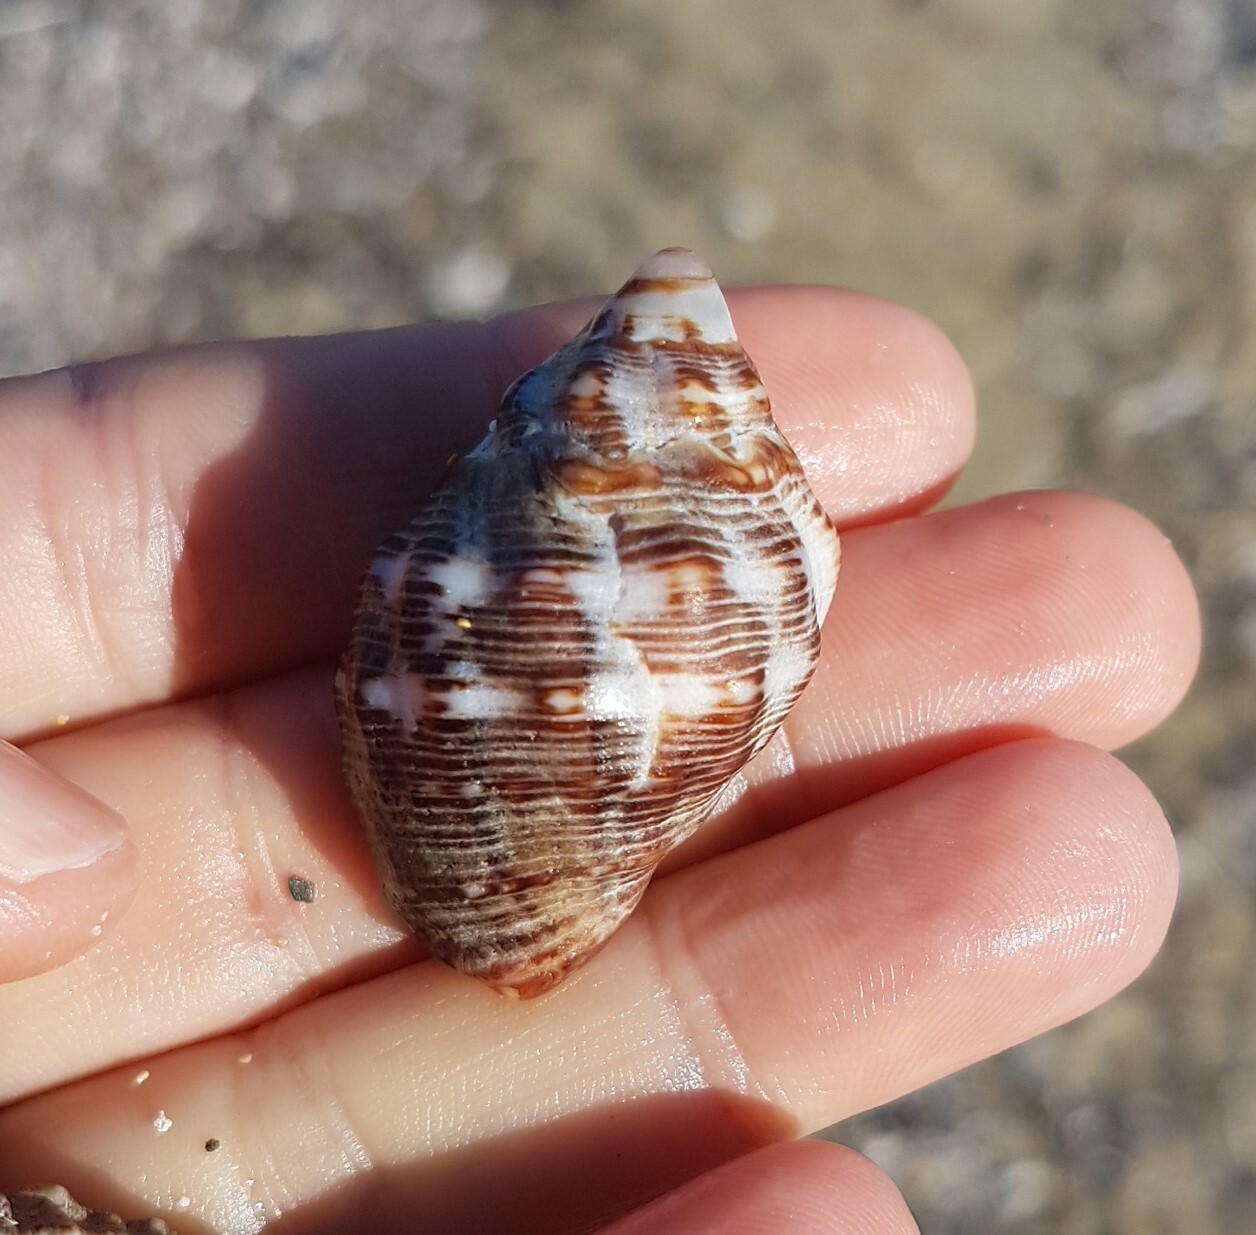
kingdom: Animalia
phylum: Mollusca
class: Gastropoda
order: Neogastropoda
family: Muricidae
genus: Stramonita
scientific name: Stramonita haemastoma
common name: Florida dog winkle
